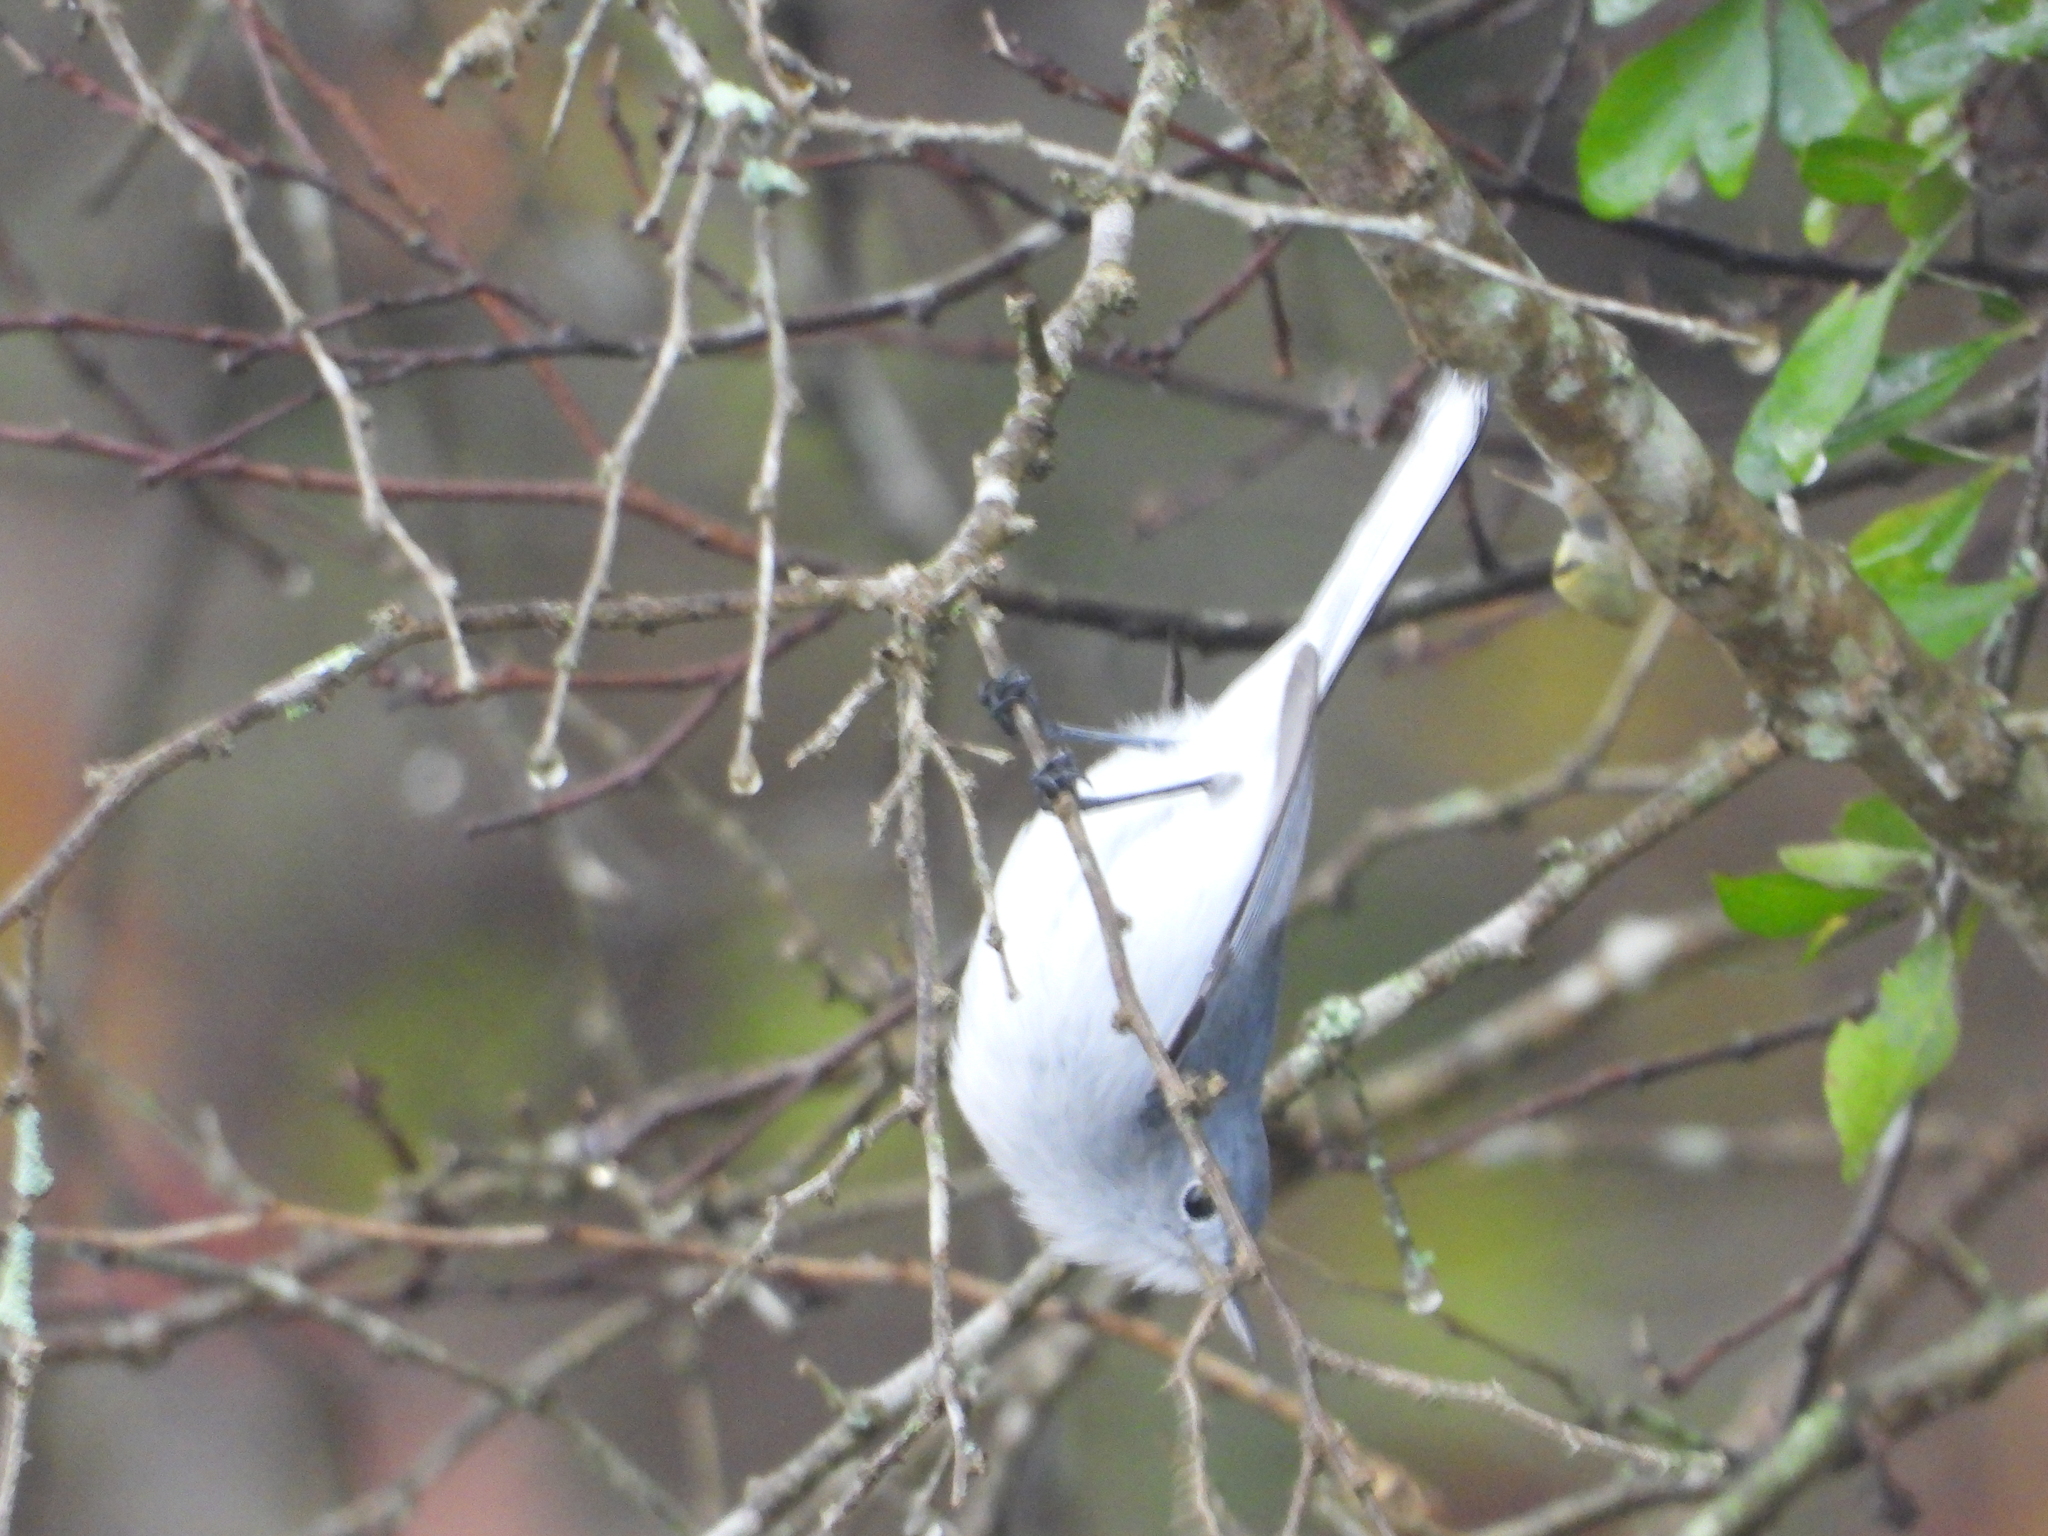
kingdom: Animalia
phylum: Chordata
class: Aves
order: Passeriformes
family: Polioptilidae
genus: Polioptila
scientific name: Polioptila caerulea
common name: Blue-gray gnatcatcher
